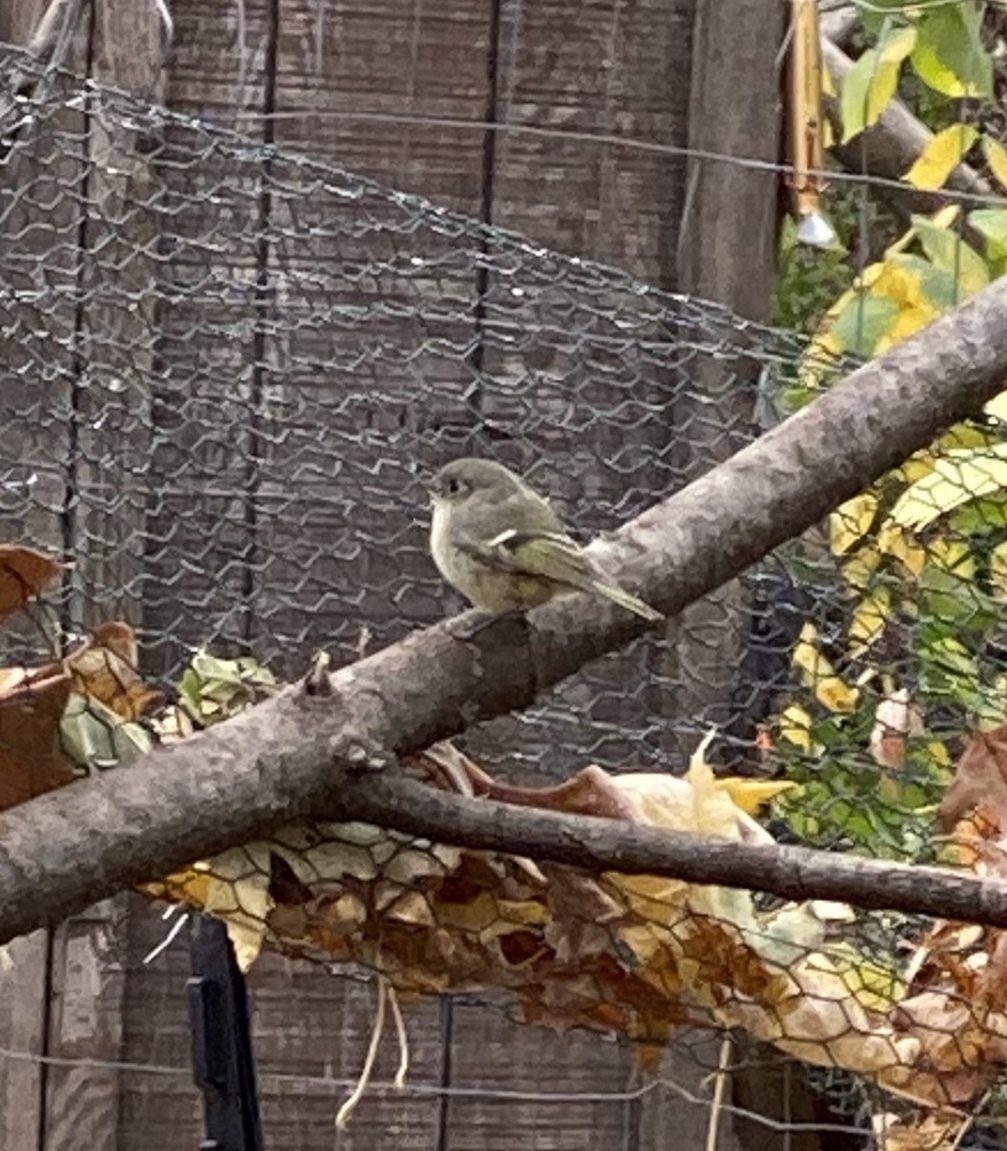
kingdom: Animalia
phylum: Chordata
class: Aves
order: Passeriformes
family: Regulidae
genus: Regulus
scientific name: Regulus calendula
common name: Ruby-crowned kinglet
